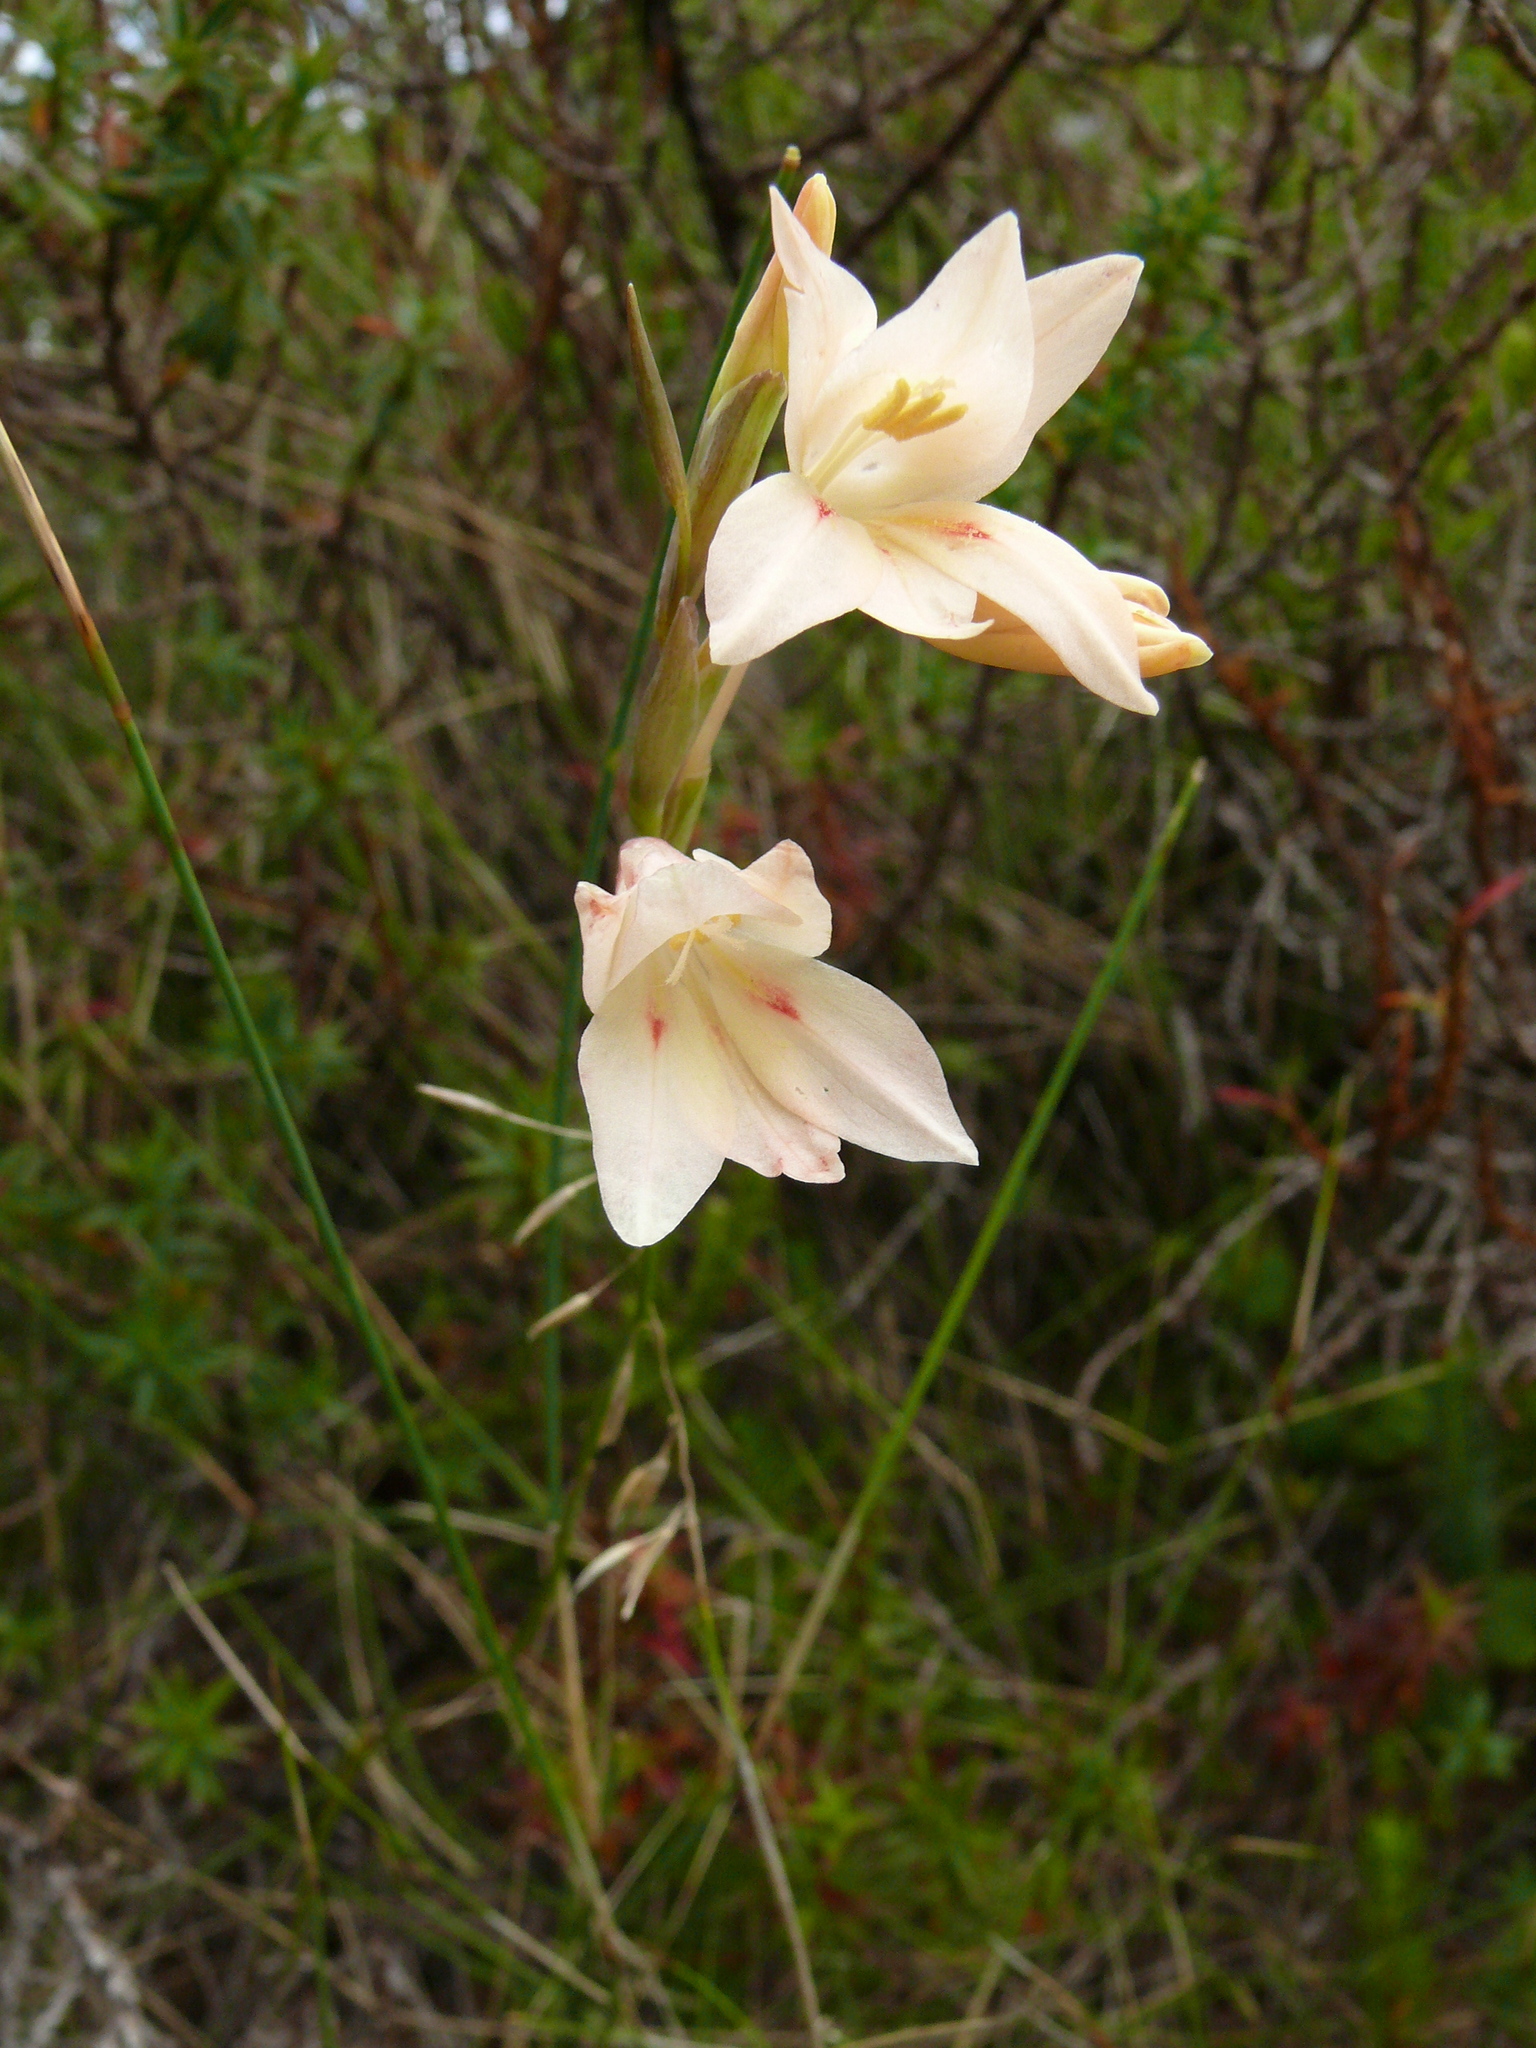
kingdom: Plantae
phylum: Tracheophyta
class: Liliopsida
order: Asparagales
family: Iridaceae
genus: Gladiolus
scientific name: Gladiolus monticola
